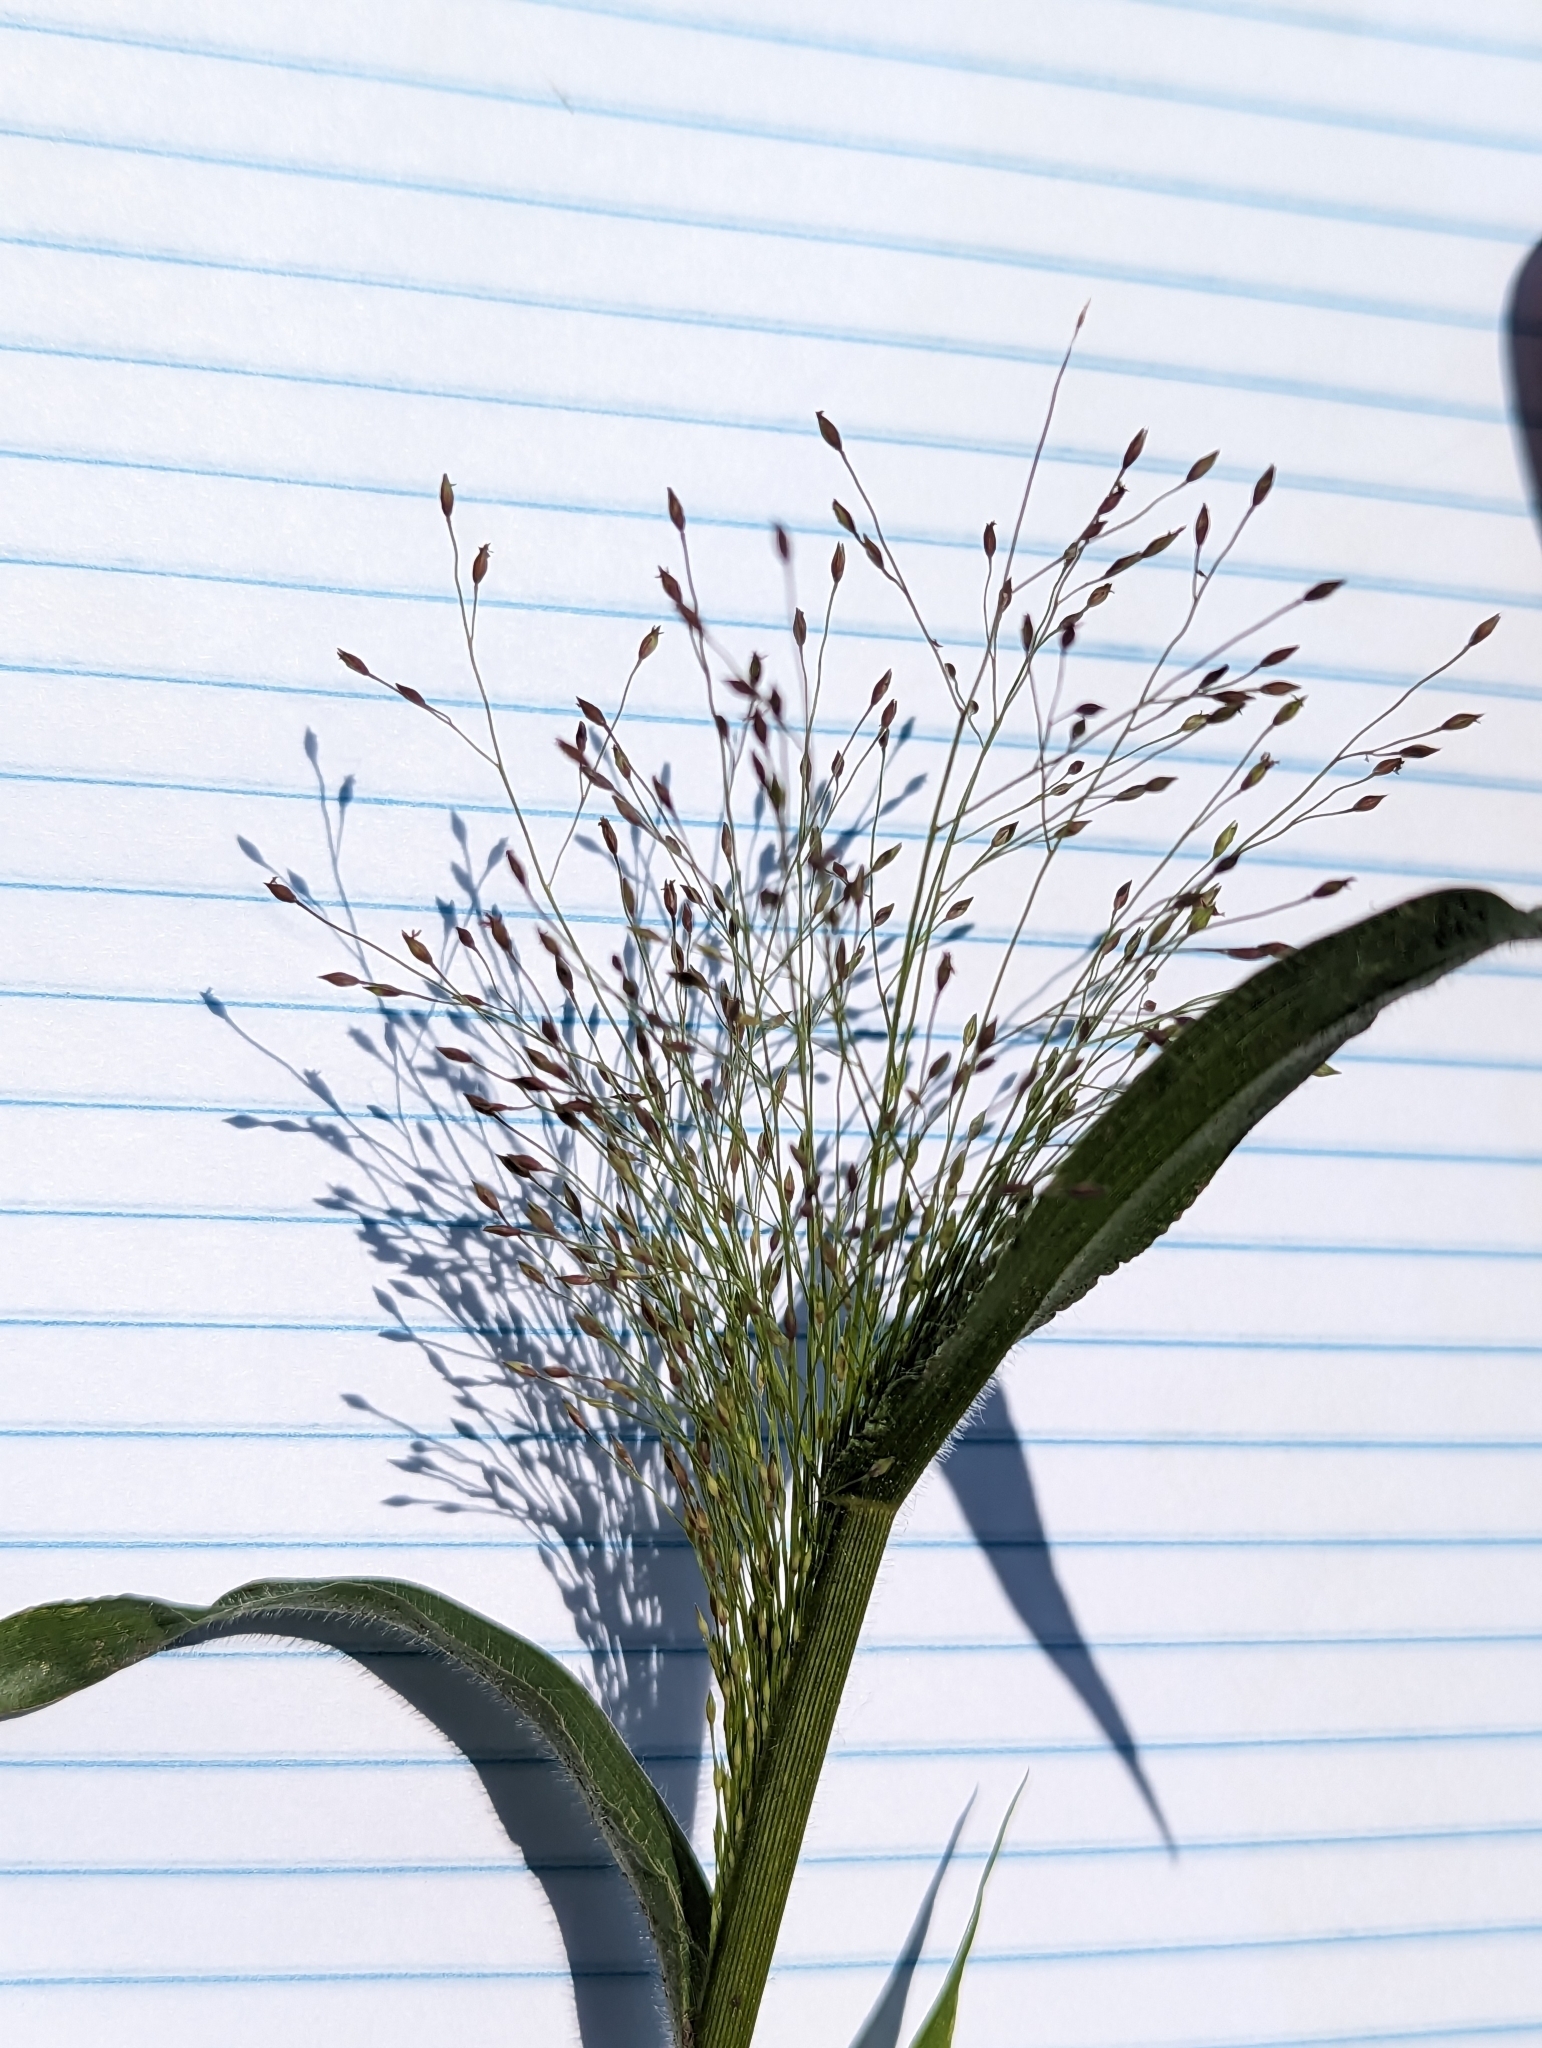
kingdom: Plantae
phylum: Tracheophyta
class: Liliopsida
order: Poales
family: Poaceae
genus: Panicum
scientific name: Panicum capillare
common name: Witch-grass
